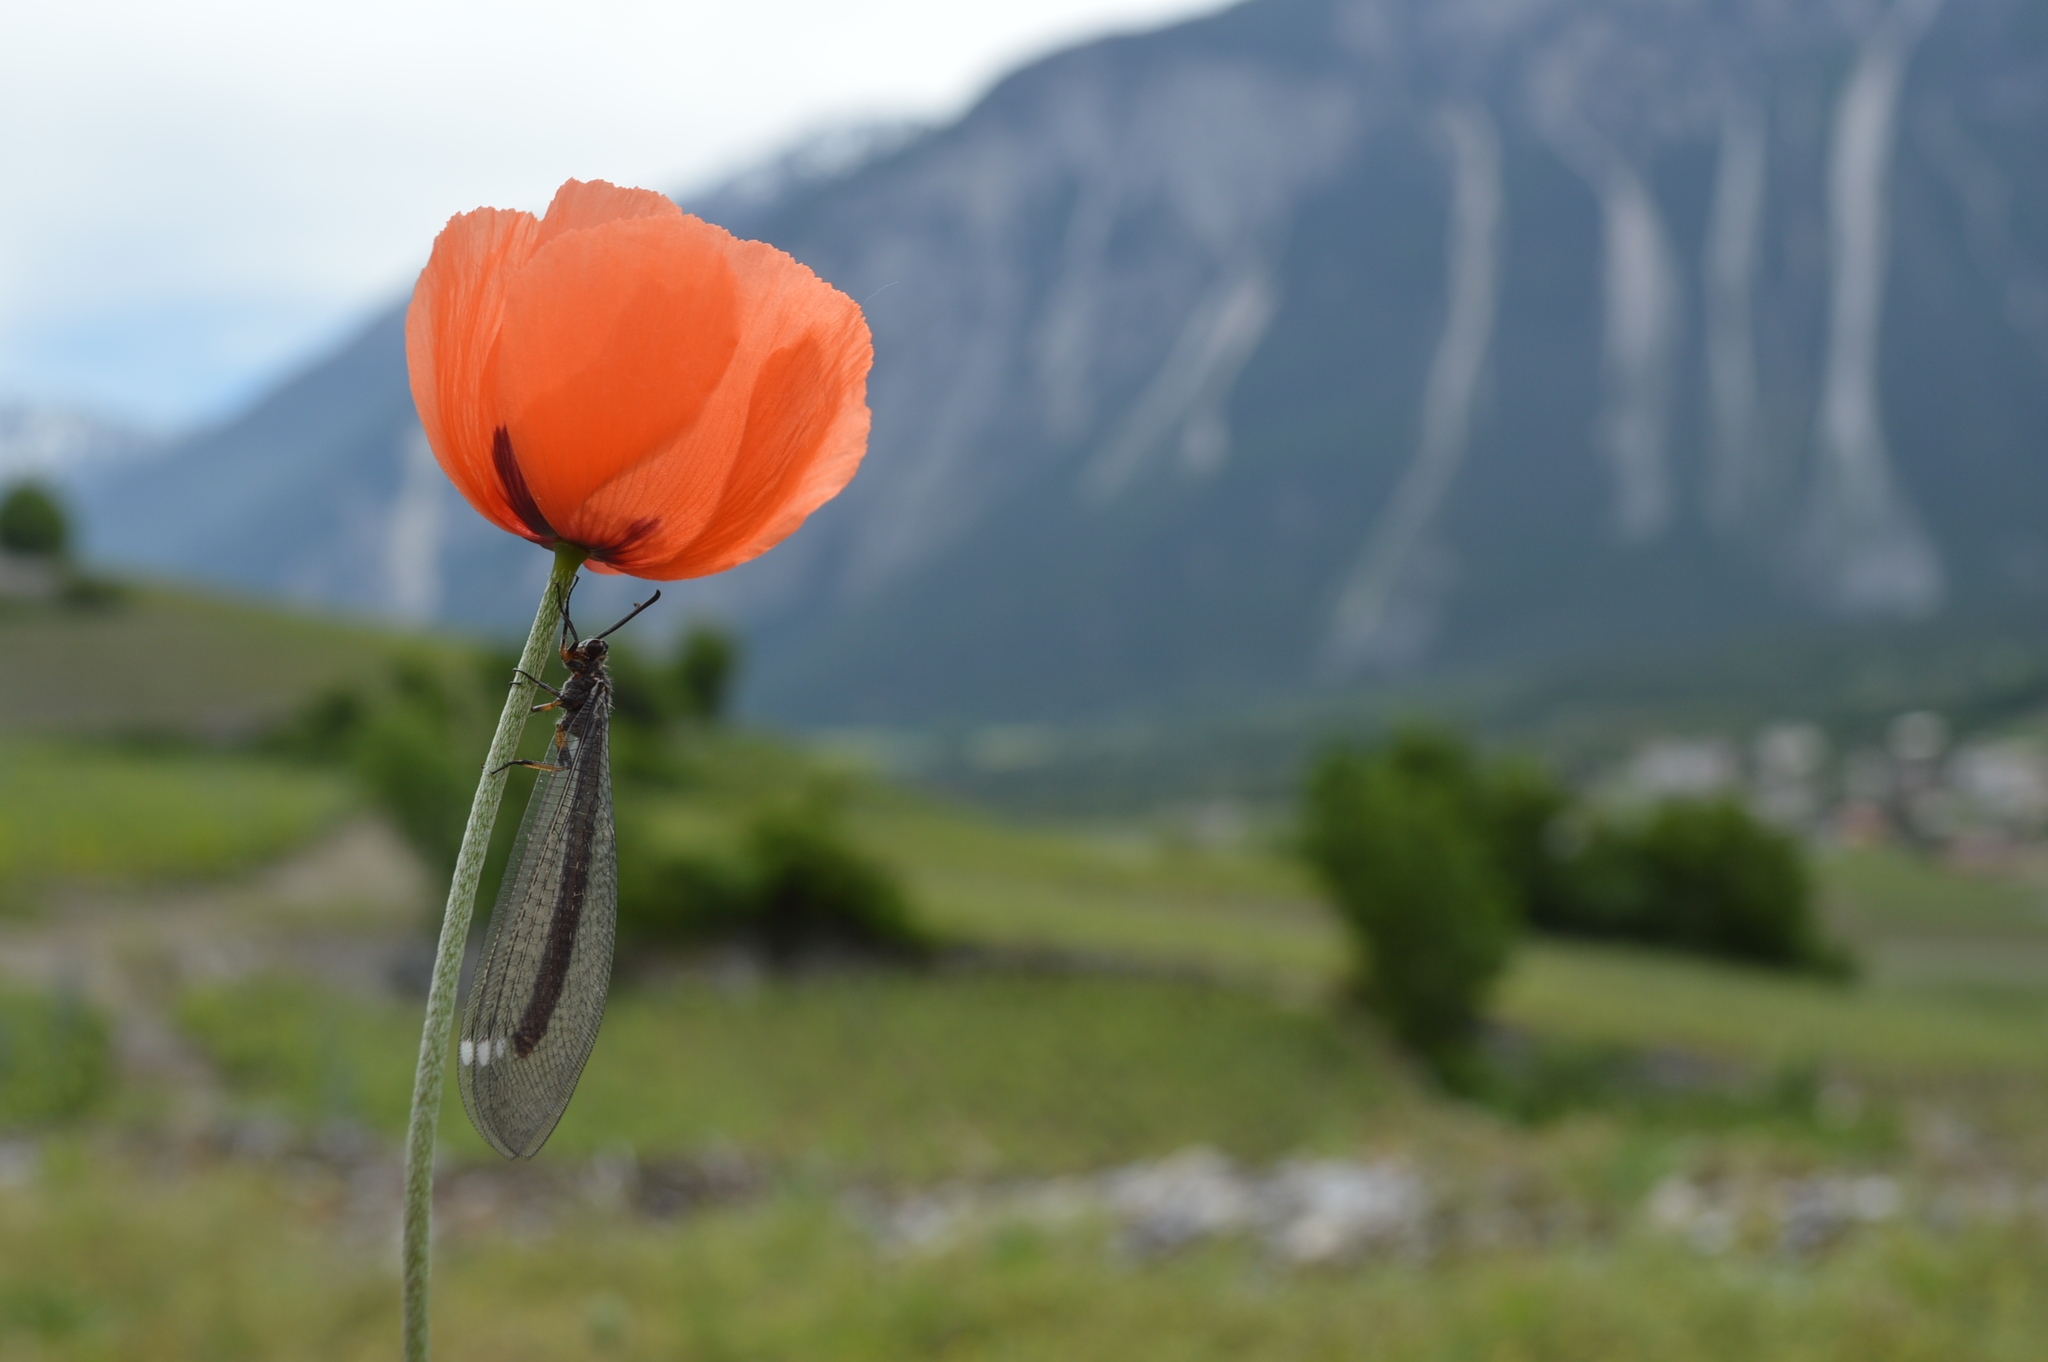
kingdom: Animalia
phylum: Arthropoda
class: Insecta
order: Neuroptera
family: Myrmeleontidae
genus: Myrmeleon
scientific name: Myrmeleon formicarius
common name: Ant-lion
